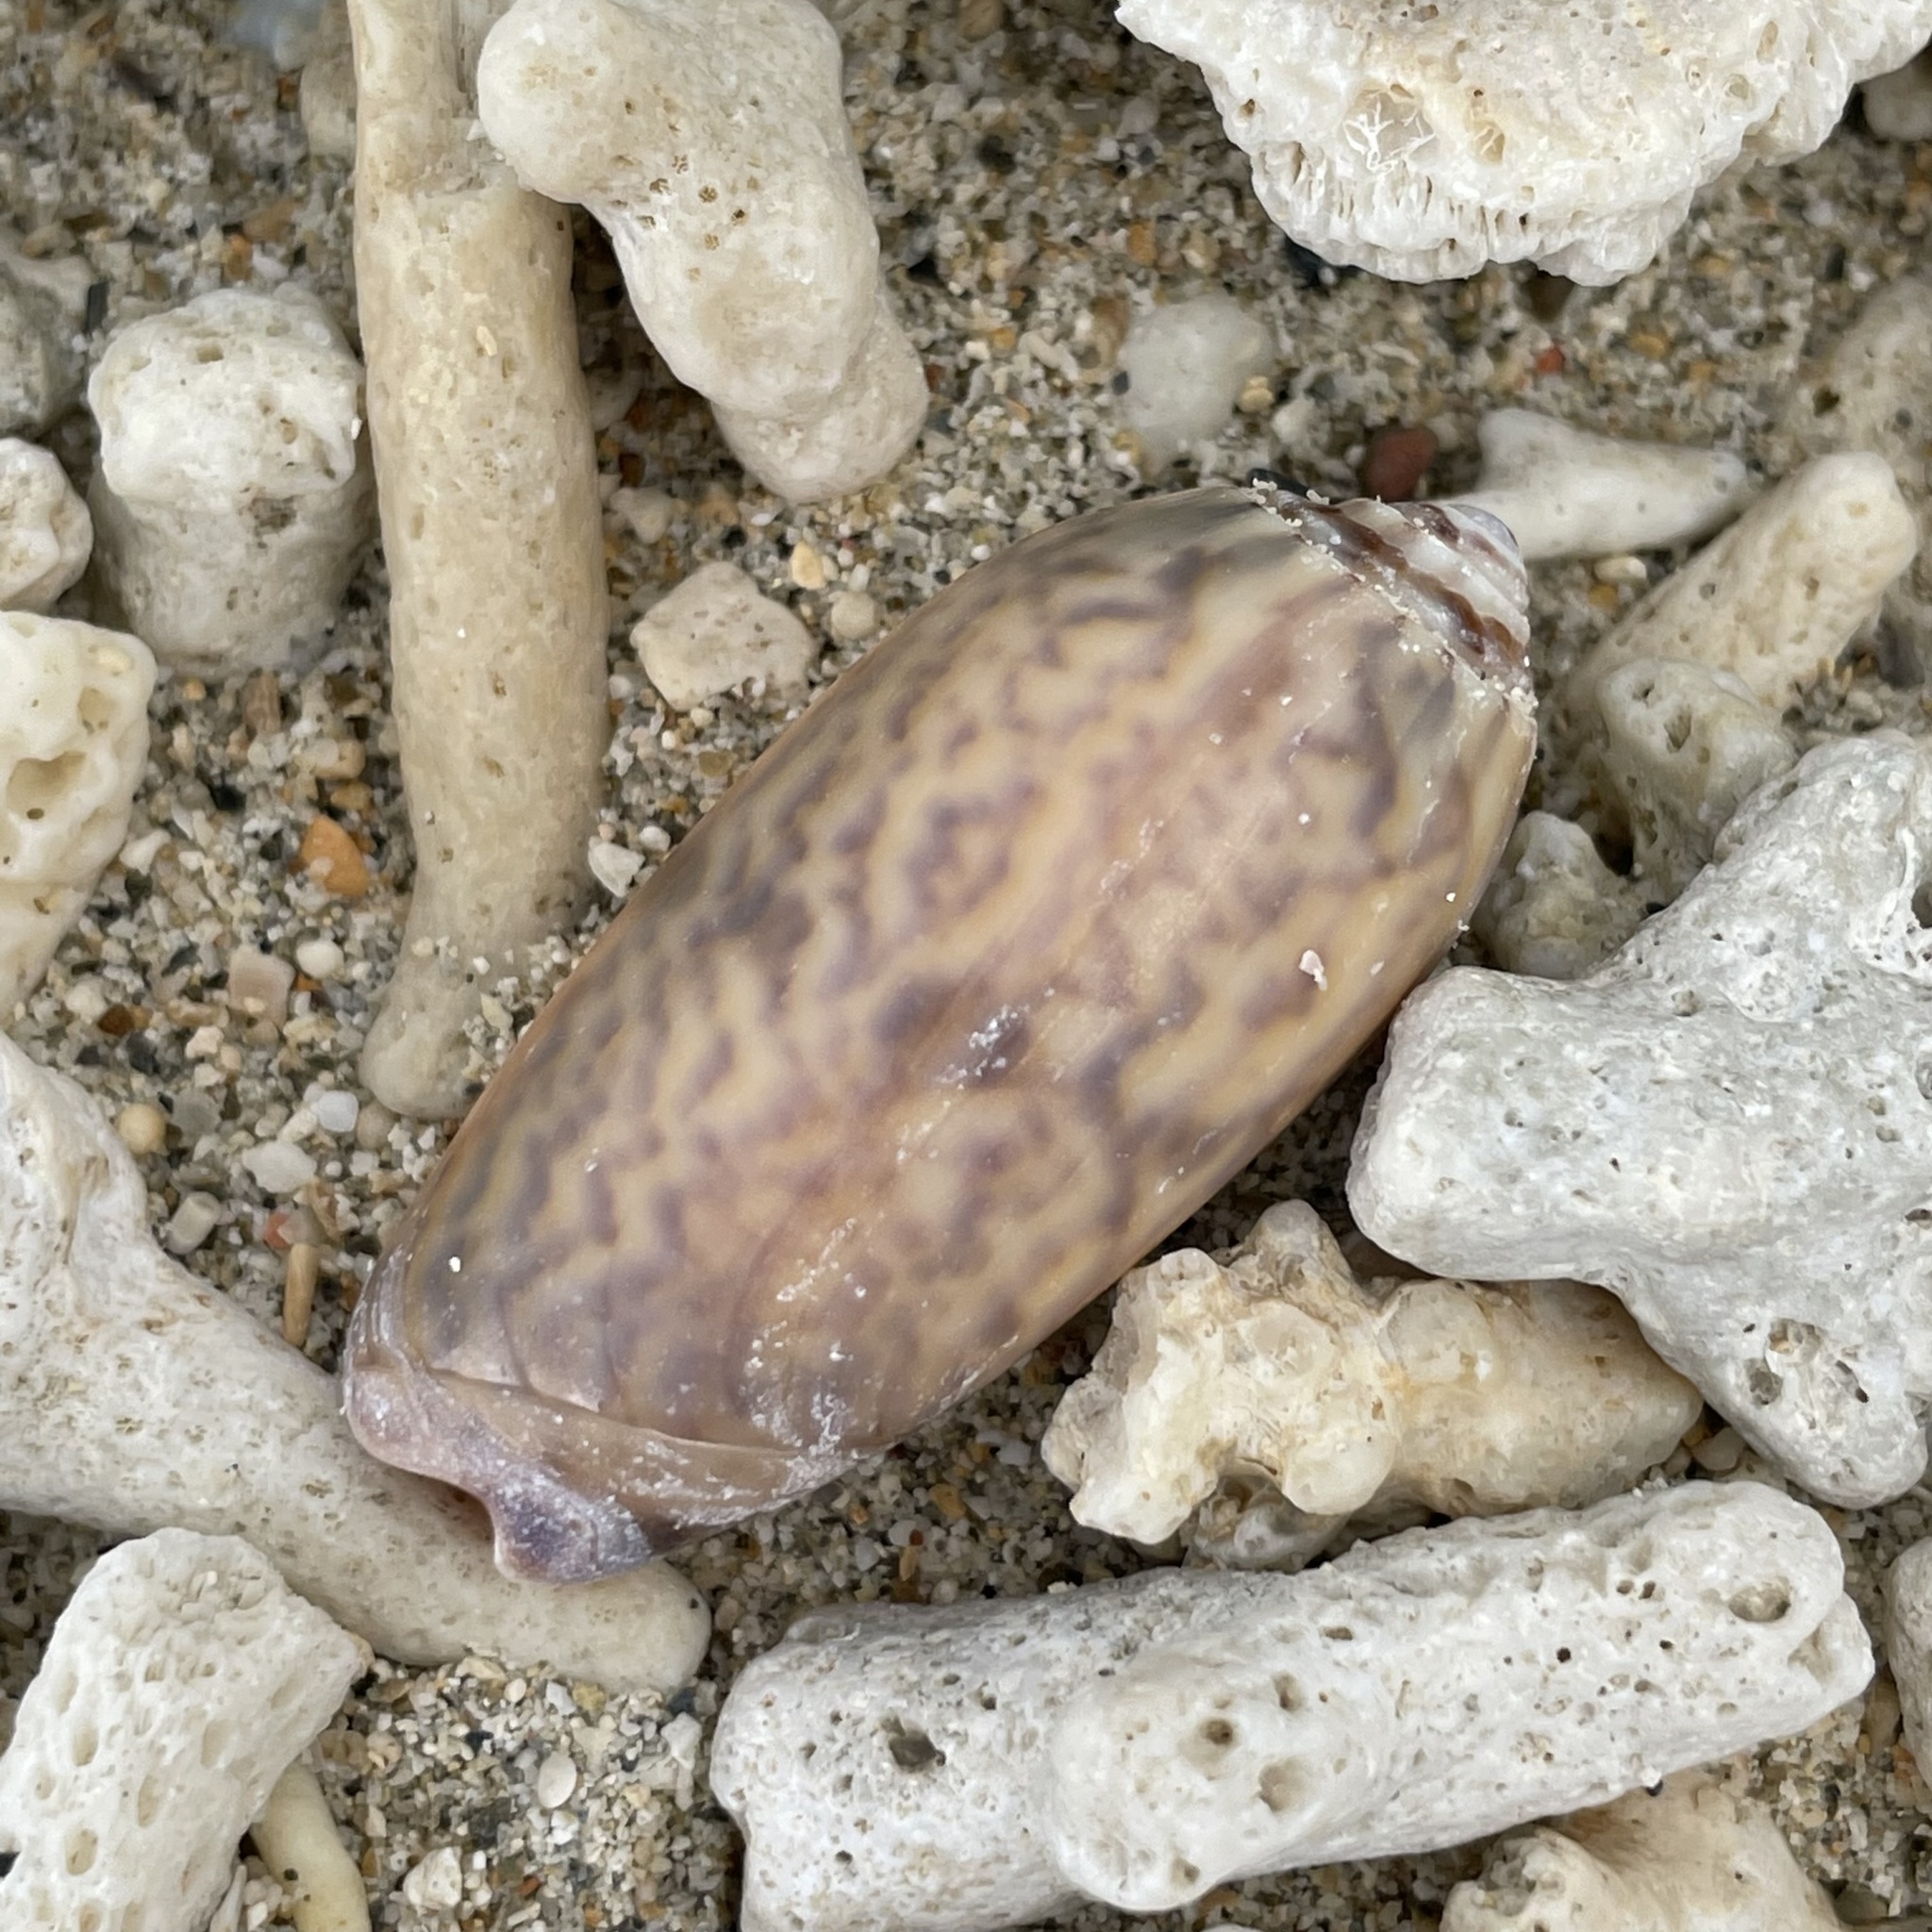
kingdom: Animalia
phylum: Mollusca
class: Gastropoda
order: Neogastropoda
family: Olividae
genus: Oliva
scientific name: Oliva miniacea
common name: Pacific common olive
